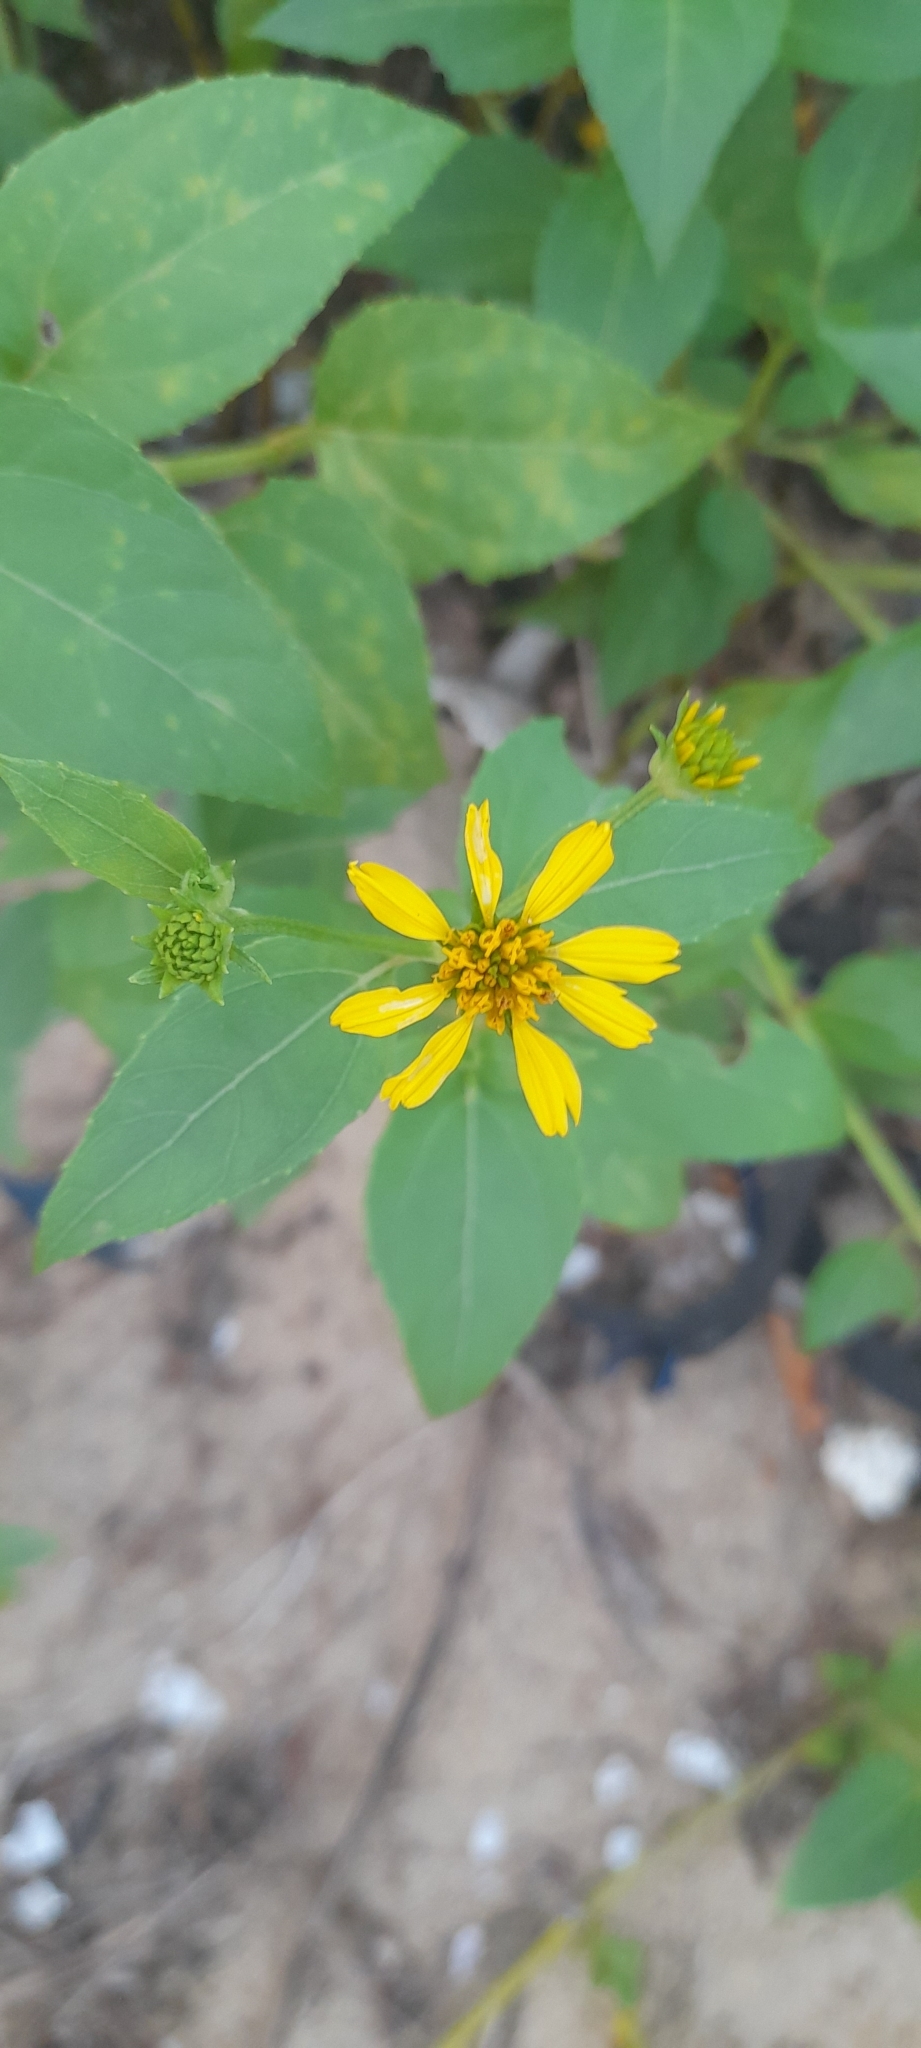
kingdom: Plantae
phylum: Tracheophyta
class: Magnoliopsida
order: Asterales
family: Asteraceae
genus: Calyptocarpus
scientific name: Calyptocarpus vialis
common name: Straggler daisy
